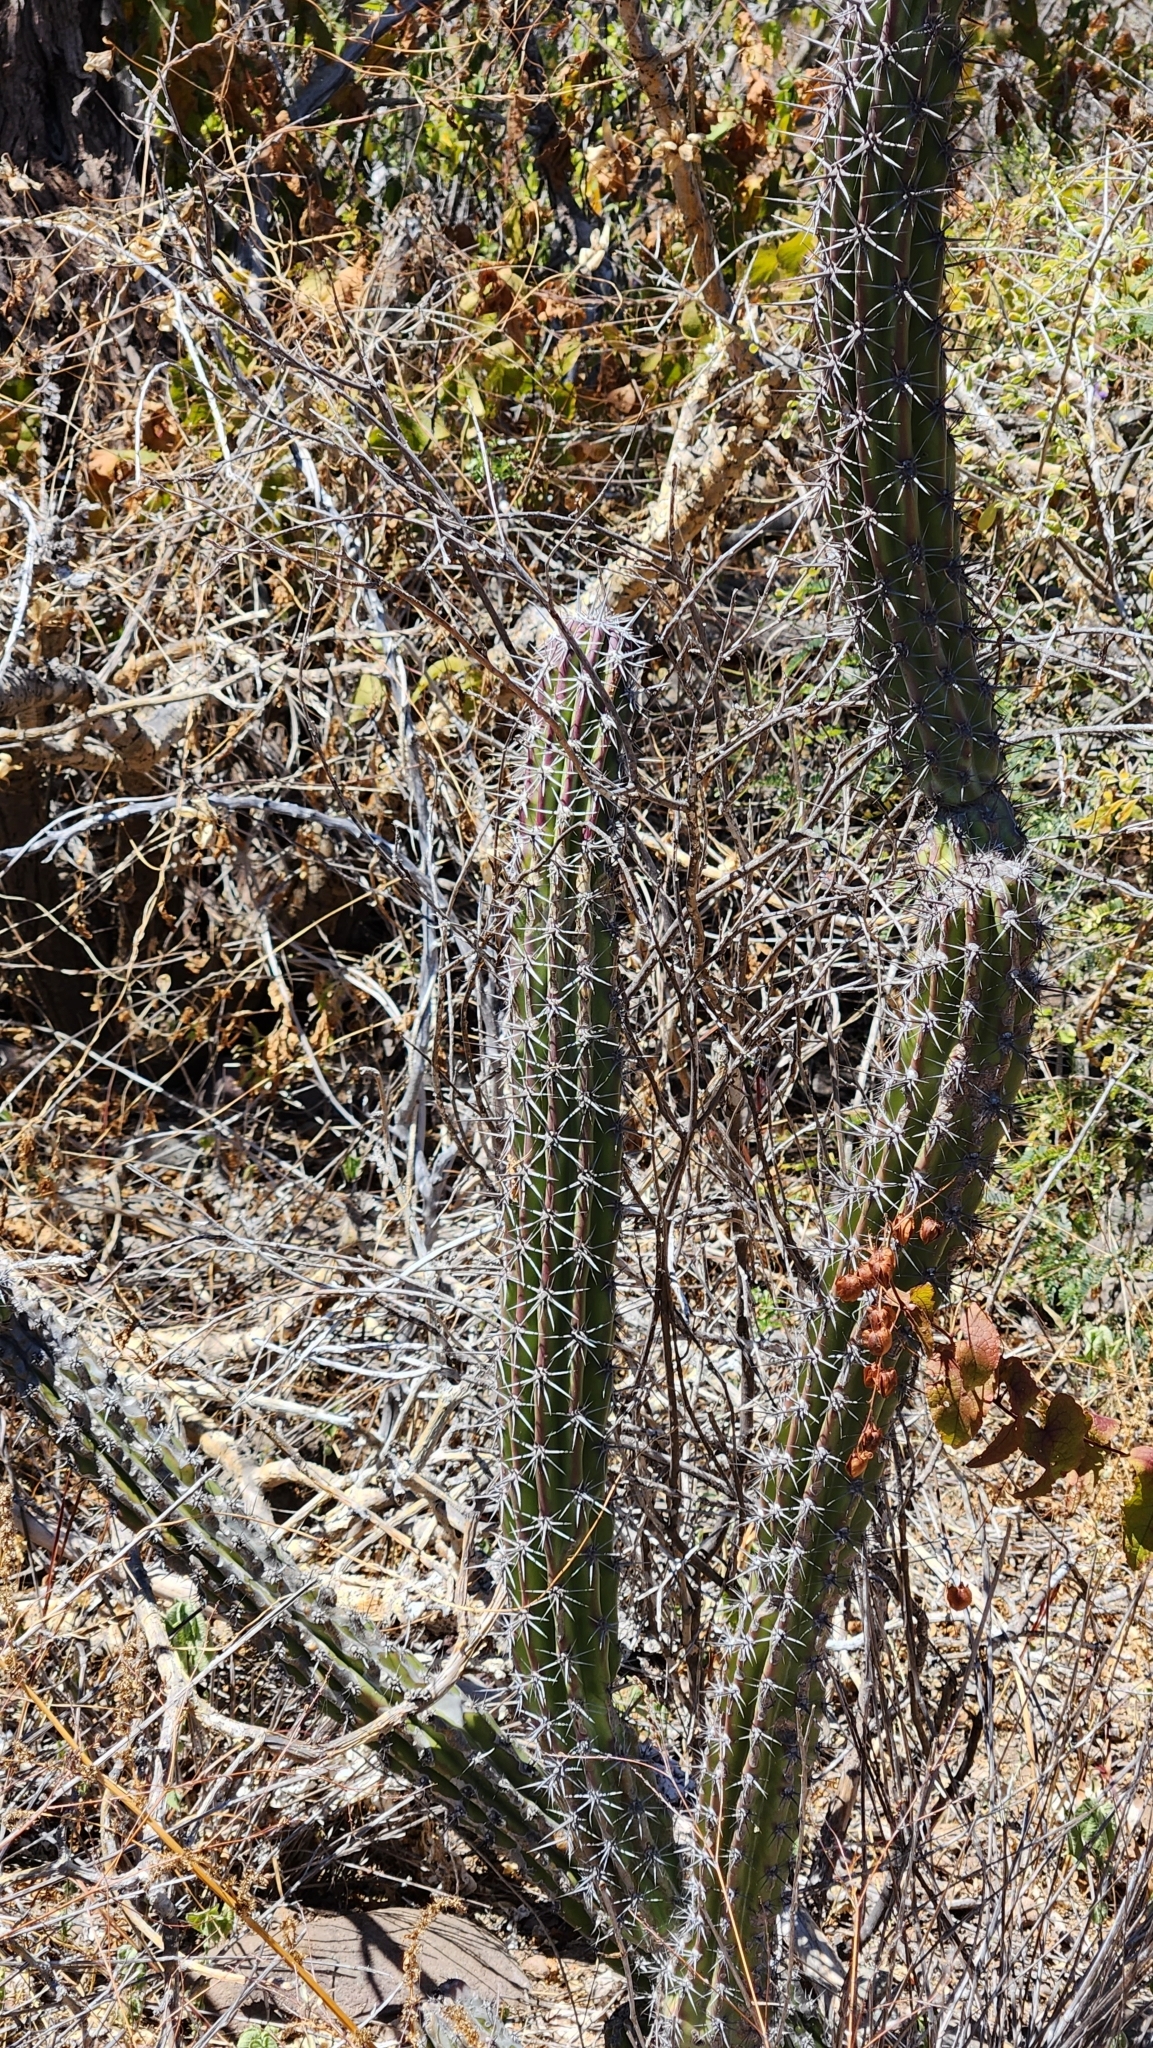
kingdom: Plantae
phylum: Tracheophyta
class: Magnoliopsida
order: Caryophyllales
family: Cactaceae
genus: Stenocereus
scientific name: Stenocereus gummosus
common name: Dagger cactus
